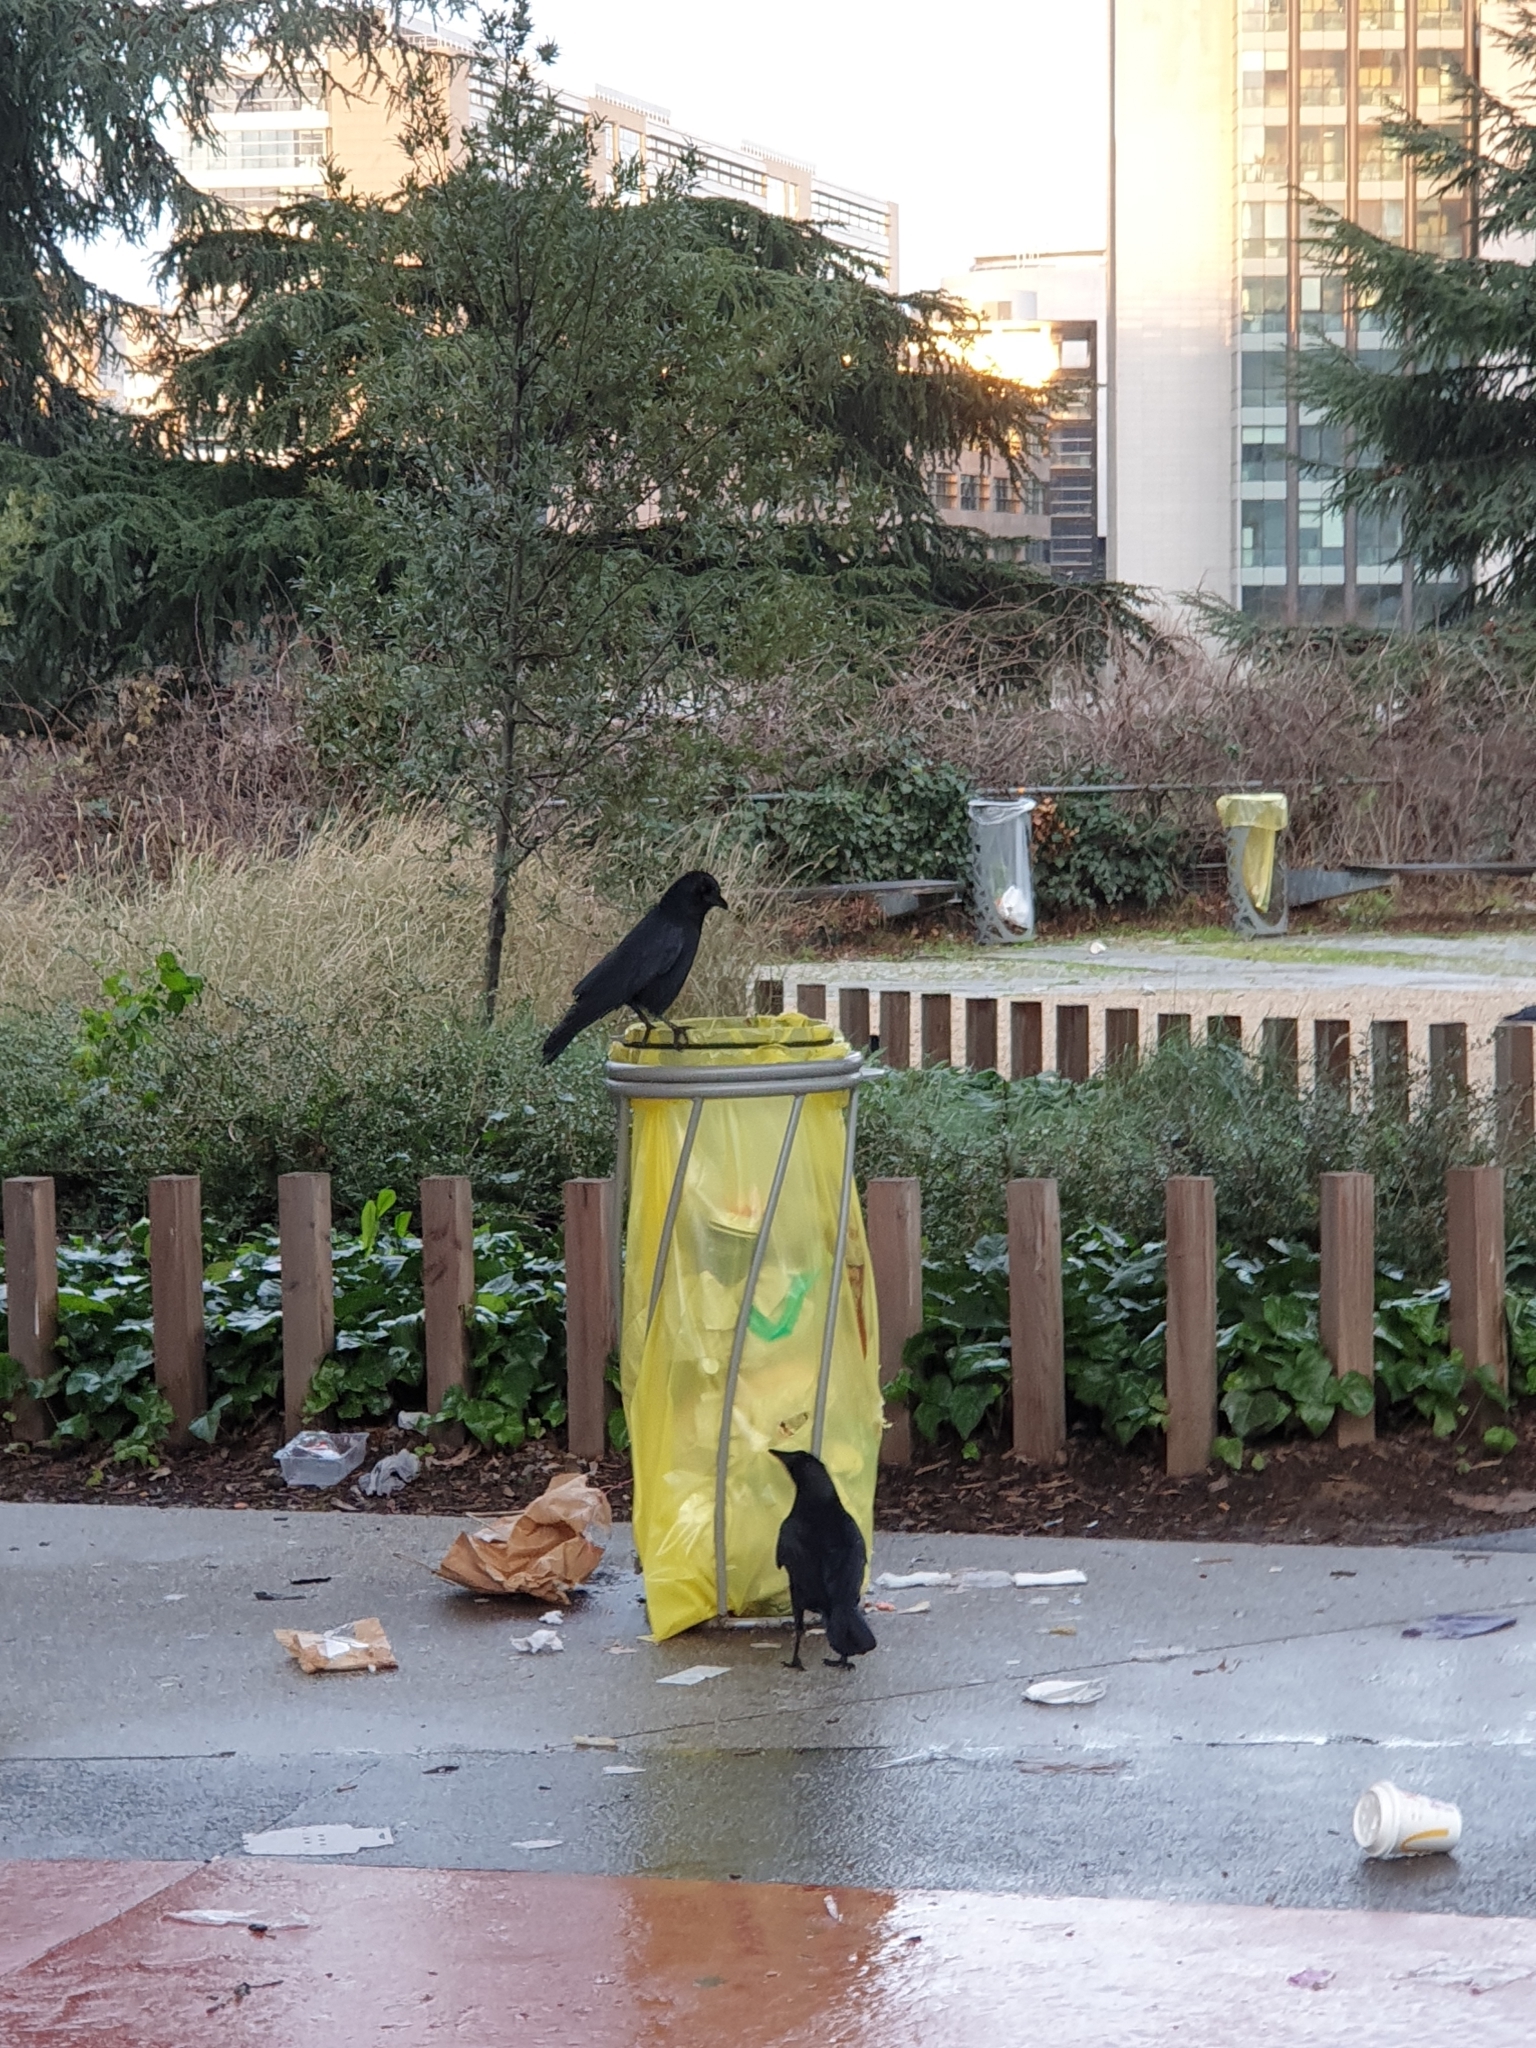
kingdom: Animalia
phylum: Chordata
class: Aves
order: Passeriformes
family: Corvidae
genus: Corvus
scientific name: Corvus corone
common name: Carrion crow
